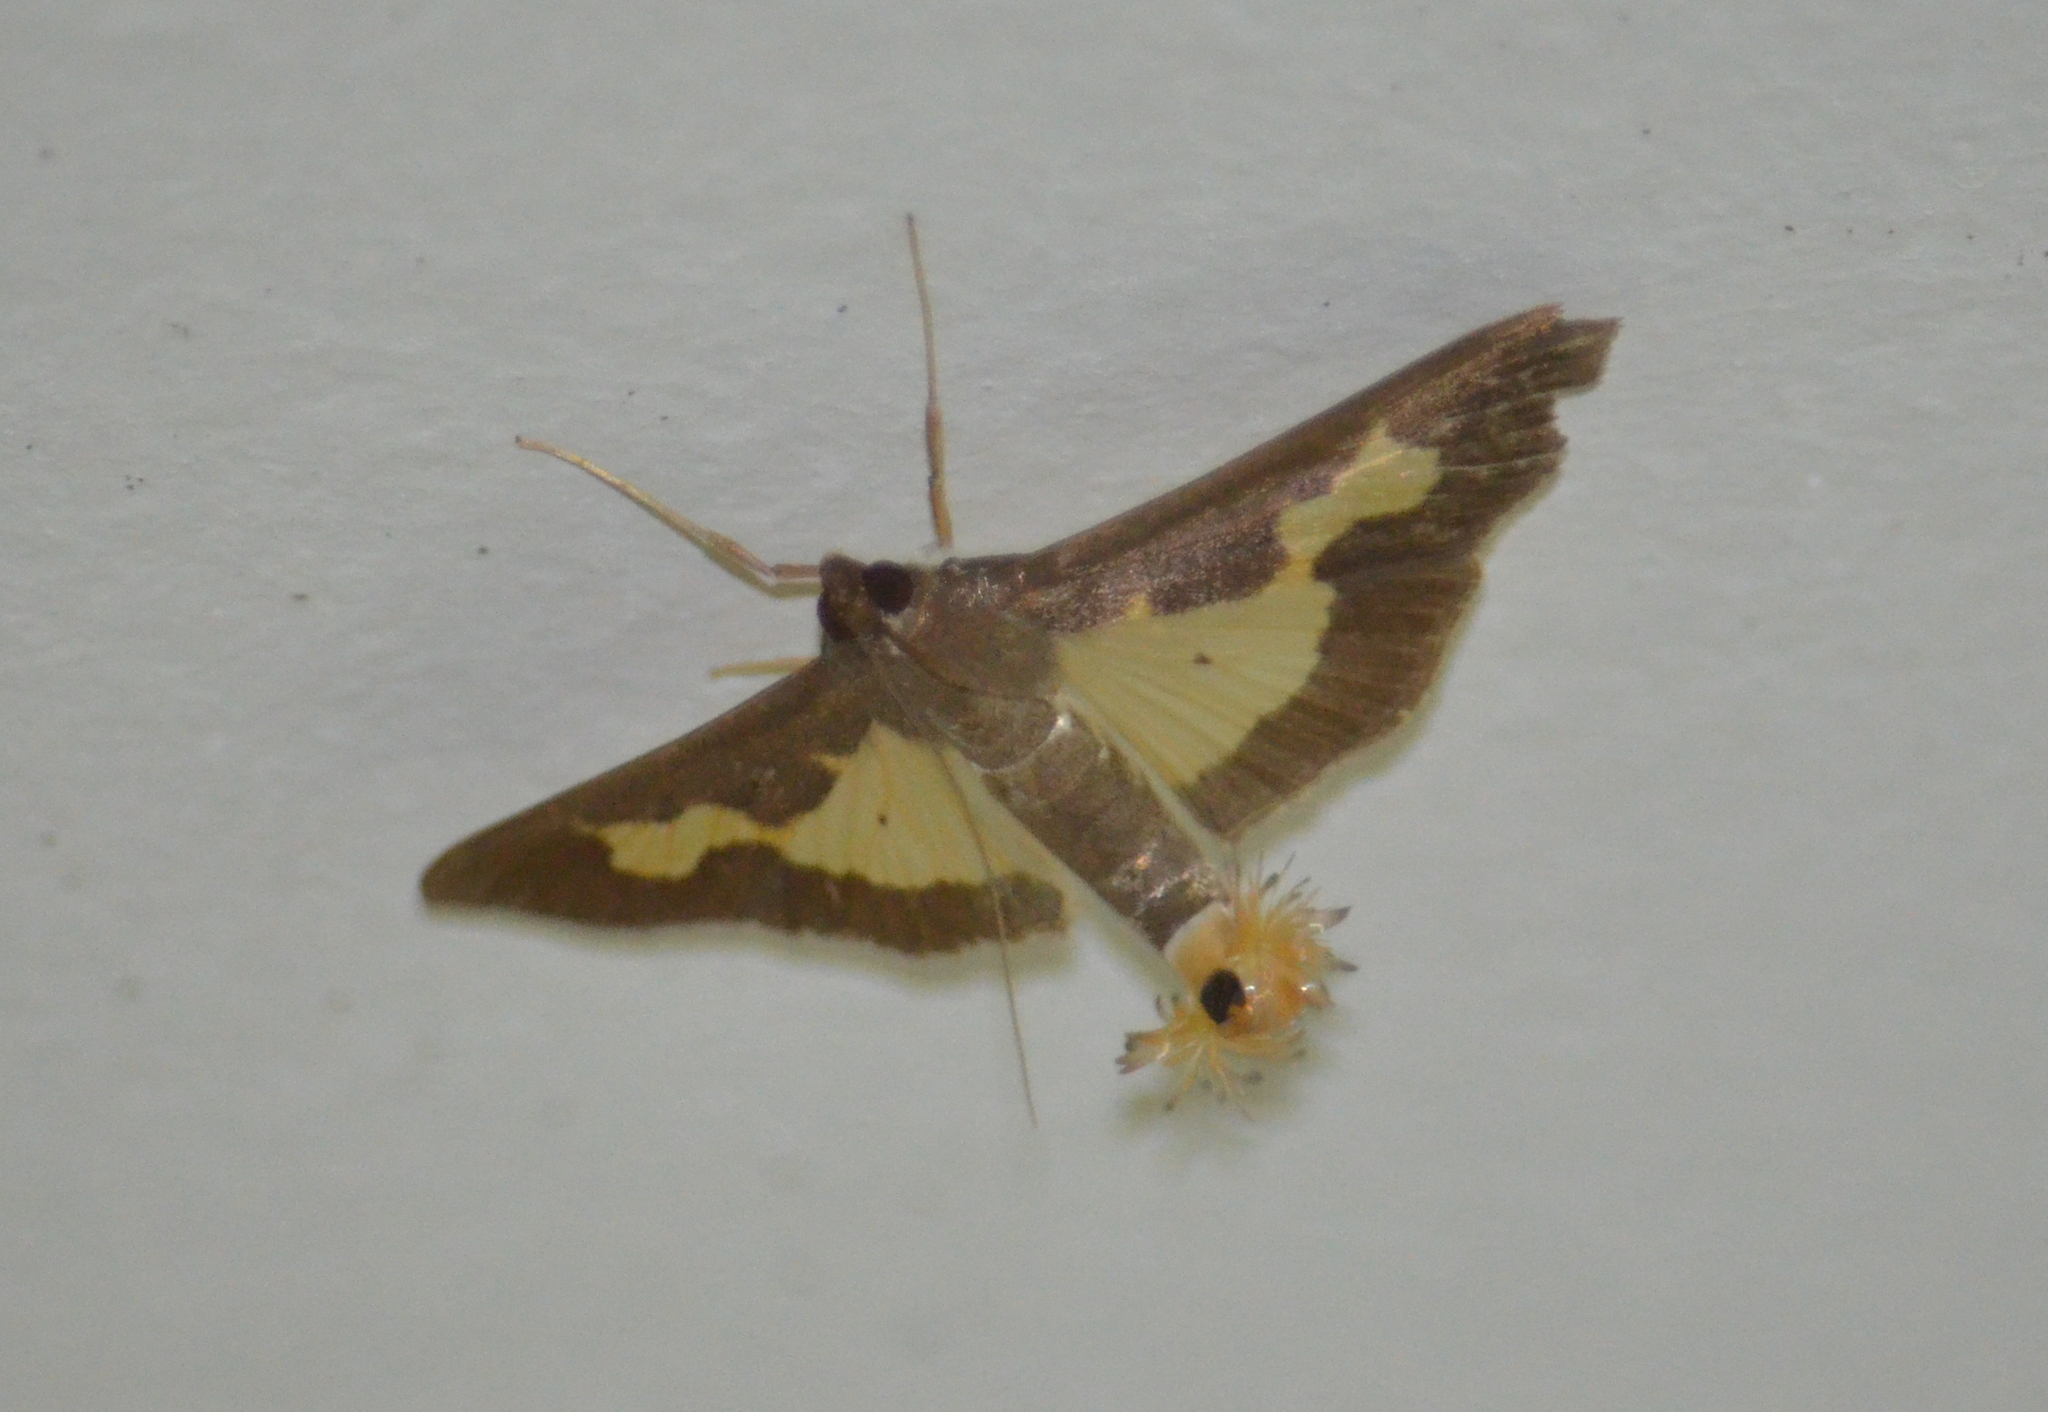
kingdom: Animalia
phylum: Arthropoda
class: Insecta
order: Lepidoptera
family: Crambidae
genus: Cryptographis
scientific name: Cryptographis nitidalis
